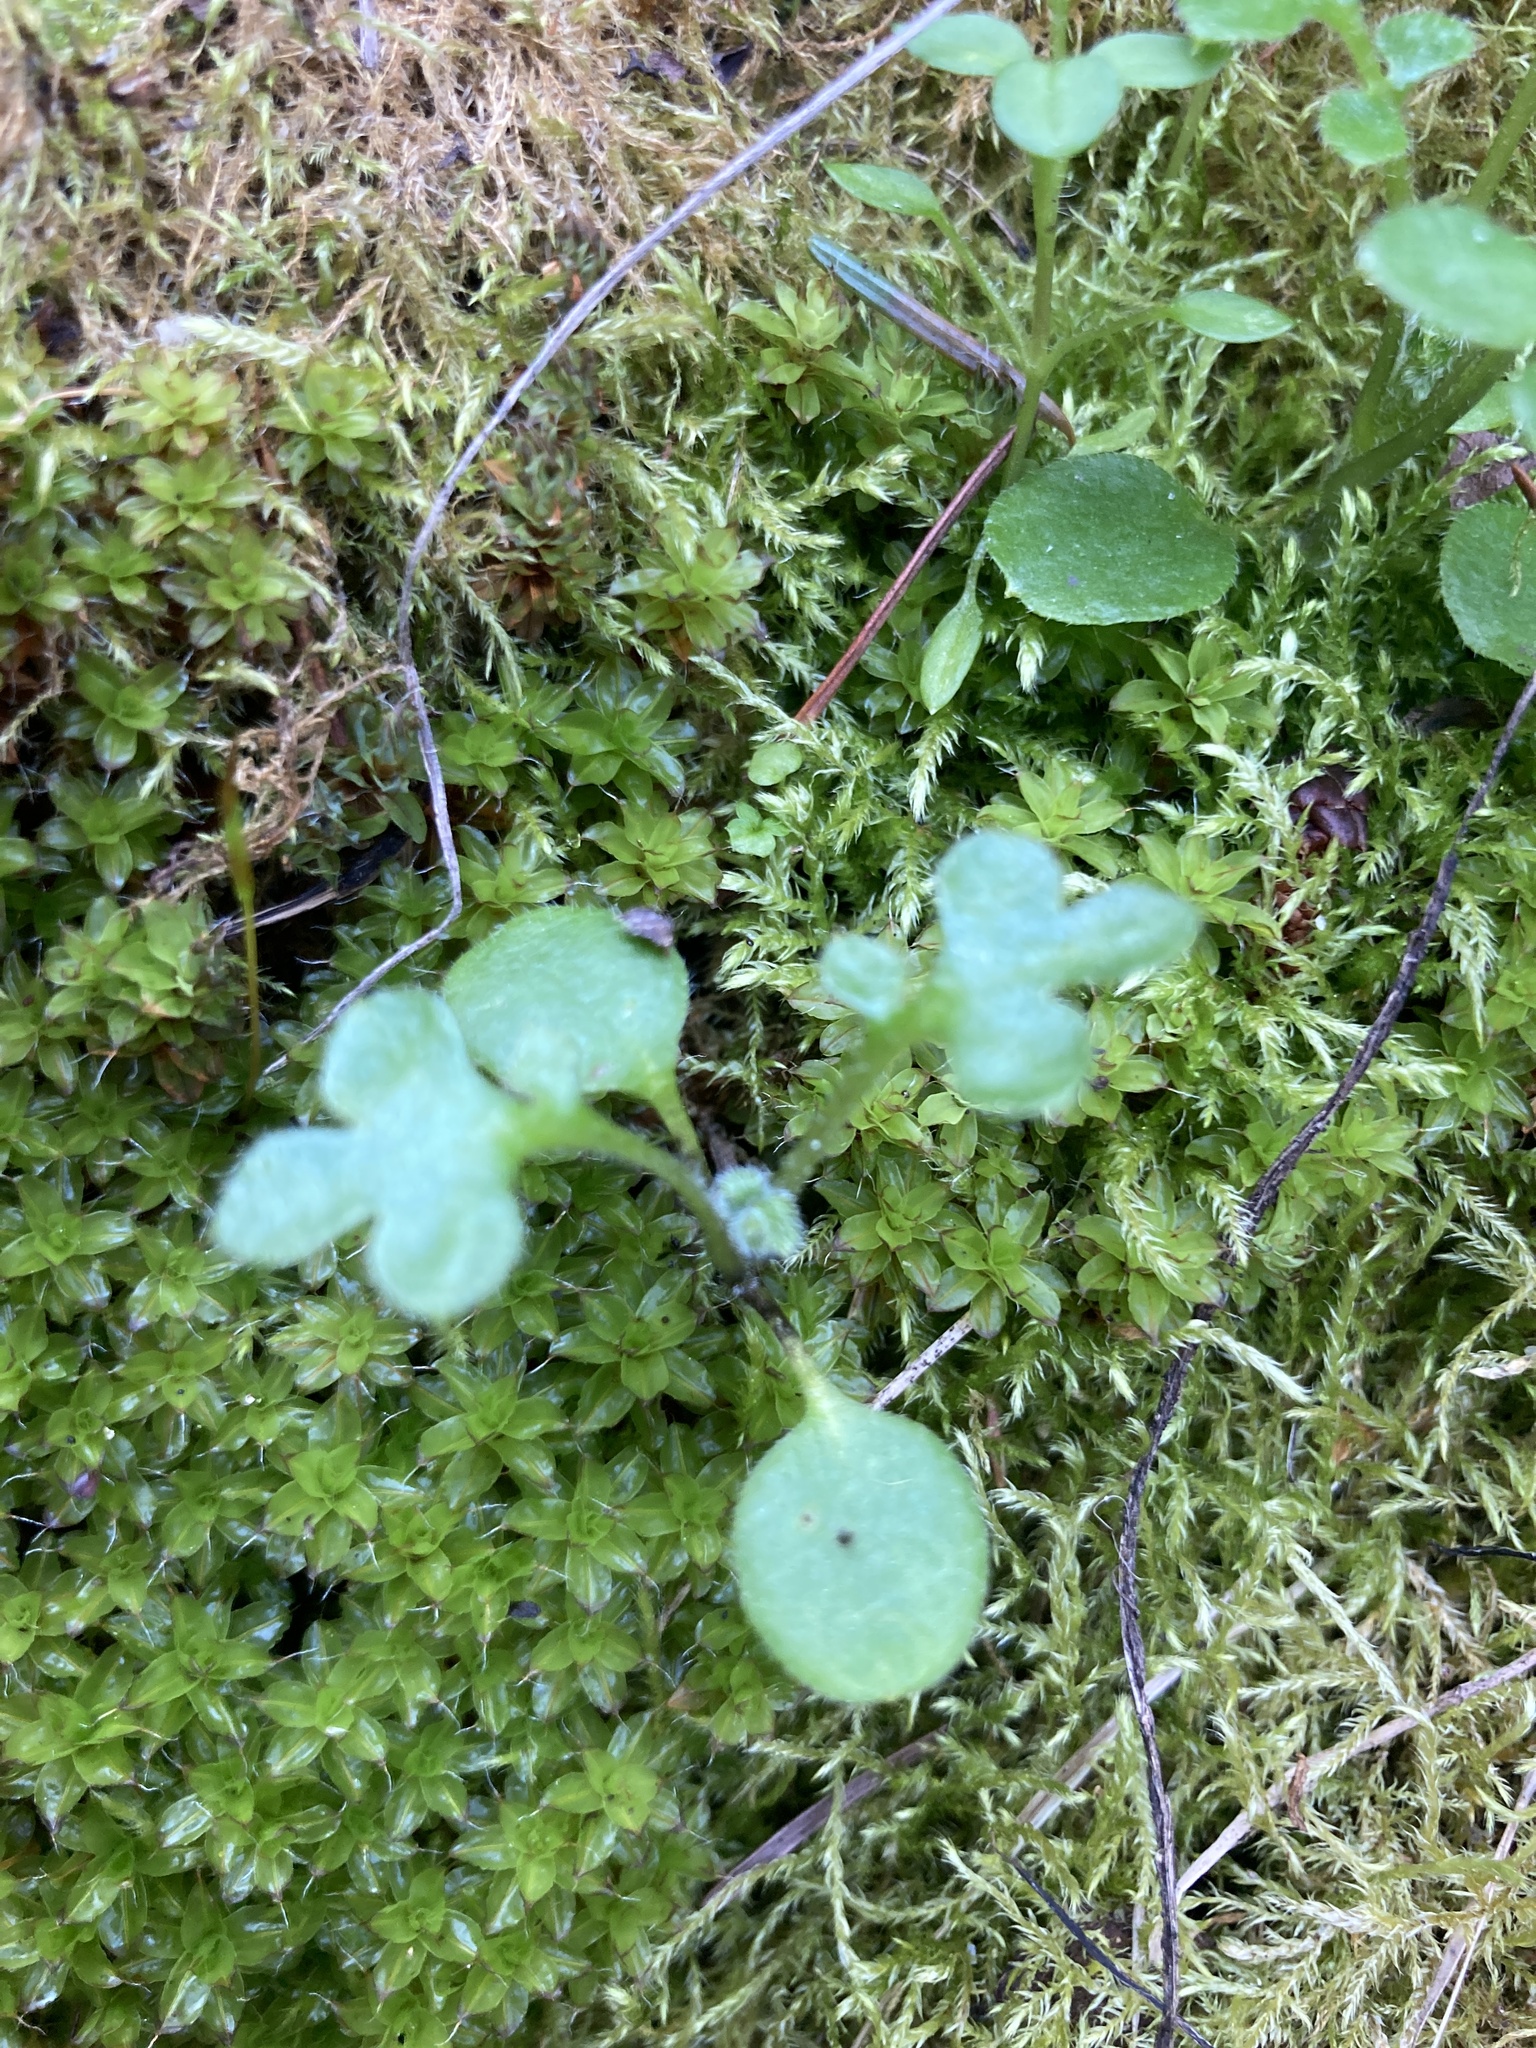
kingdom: Plantae
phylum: Tracheophyta
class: Magnoliopsida
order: Boraginales
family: Hydrophyllaceae
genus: Nemophila
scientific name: Nemophila parviflora
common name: Small-flowered baby-blue-eyes
